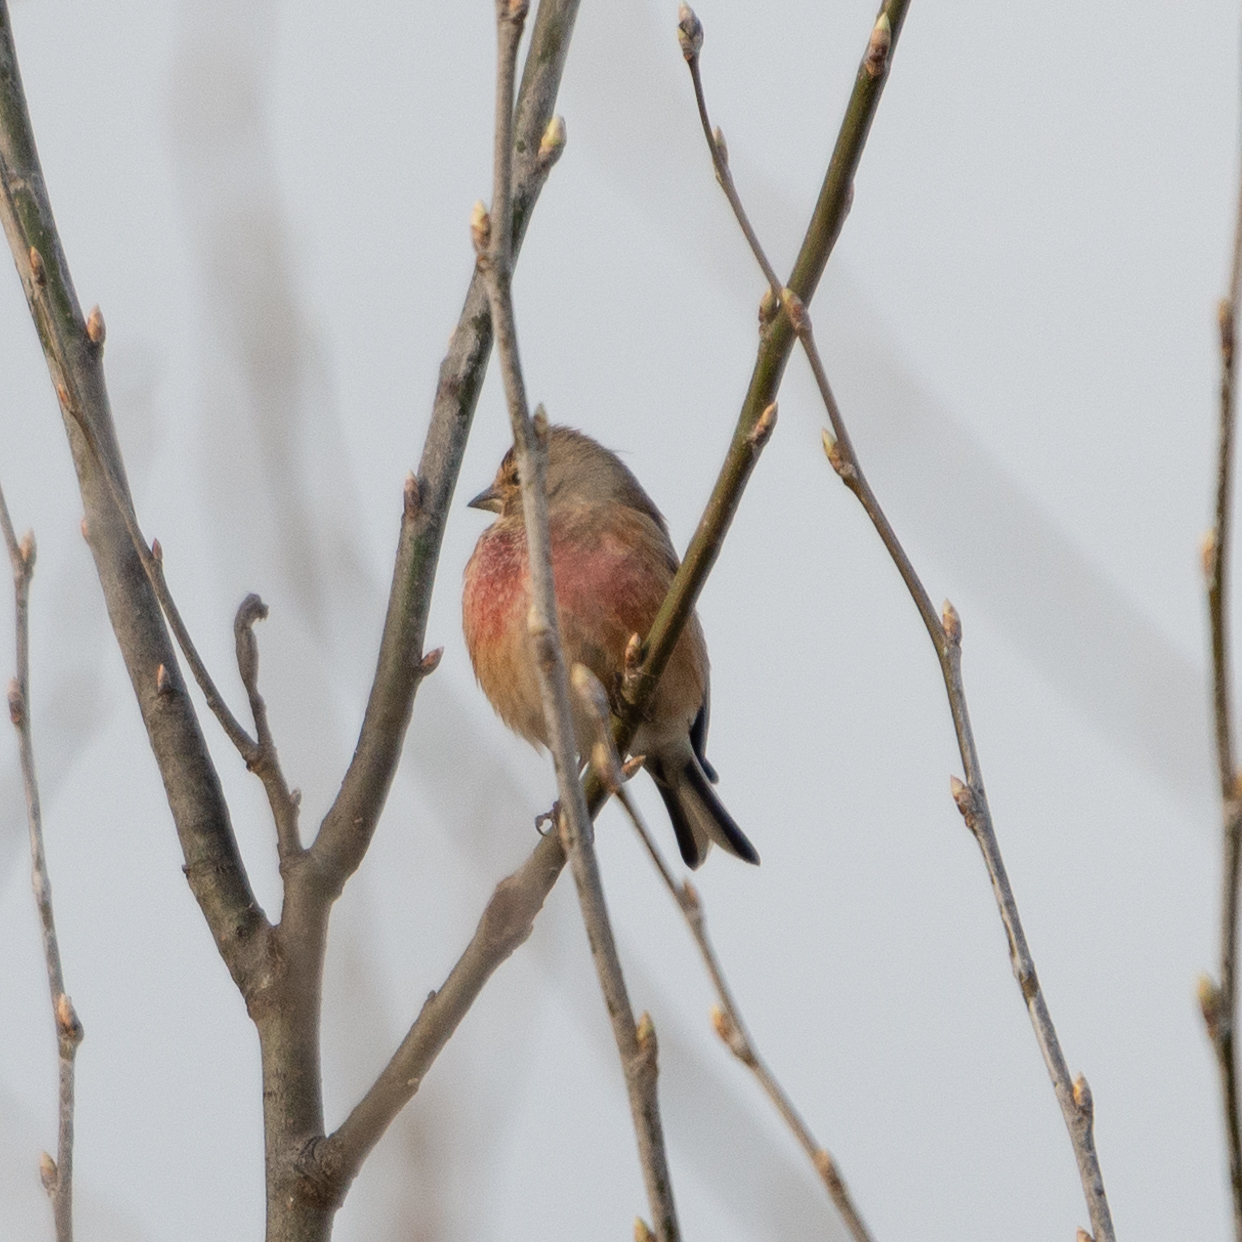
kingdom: Animalia
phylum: Chordata
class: Aves
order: Passeriformes
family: Fringillidae
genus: Linaria
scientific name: Linaria cannabina
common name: Common linnet
